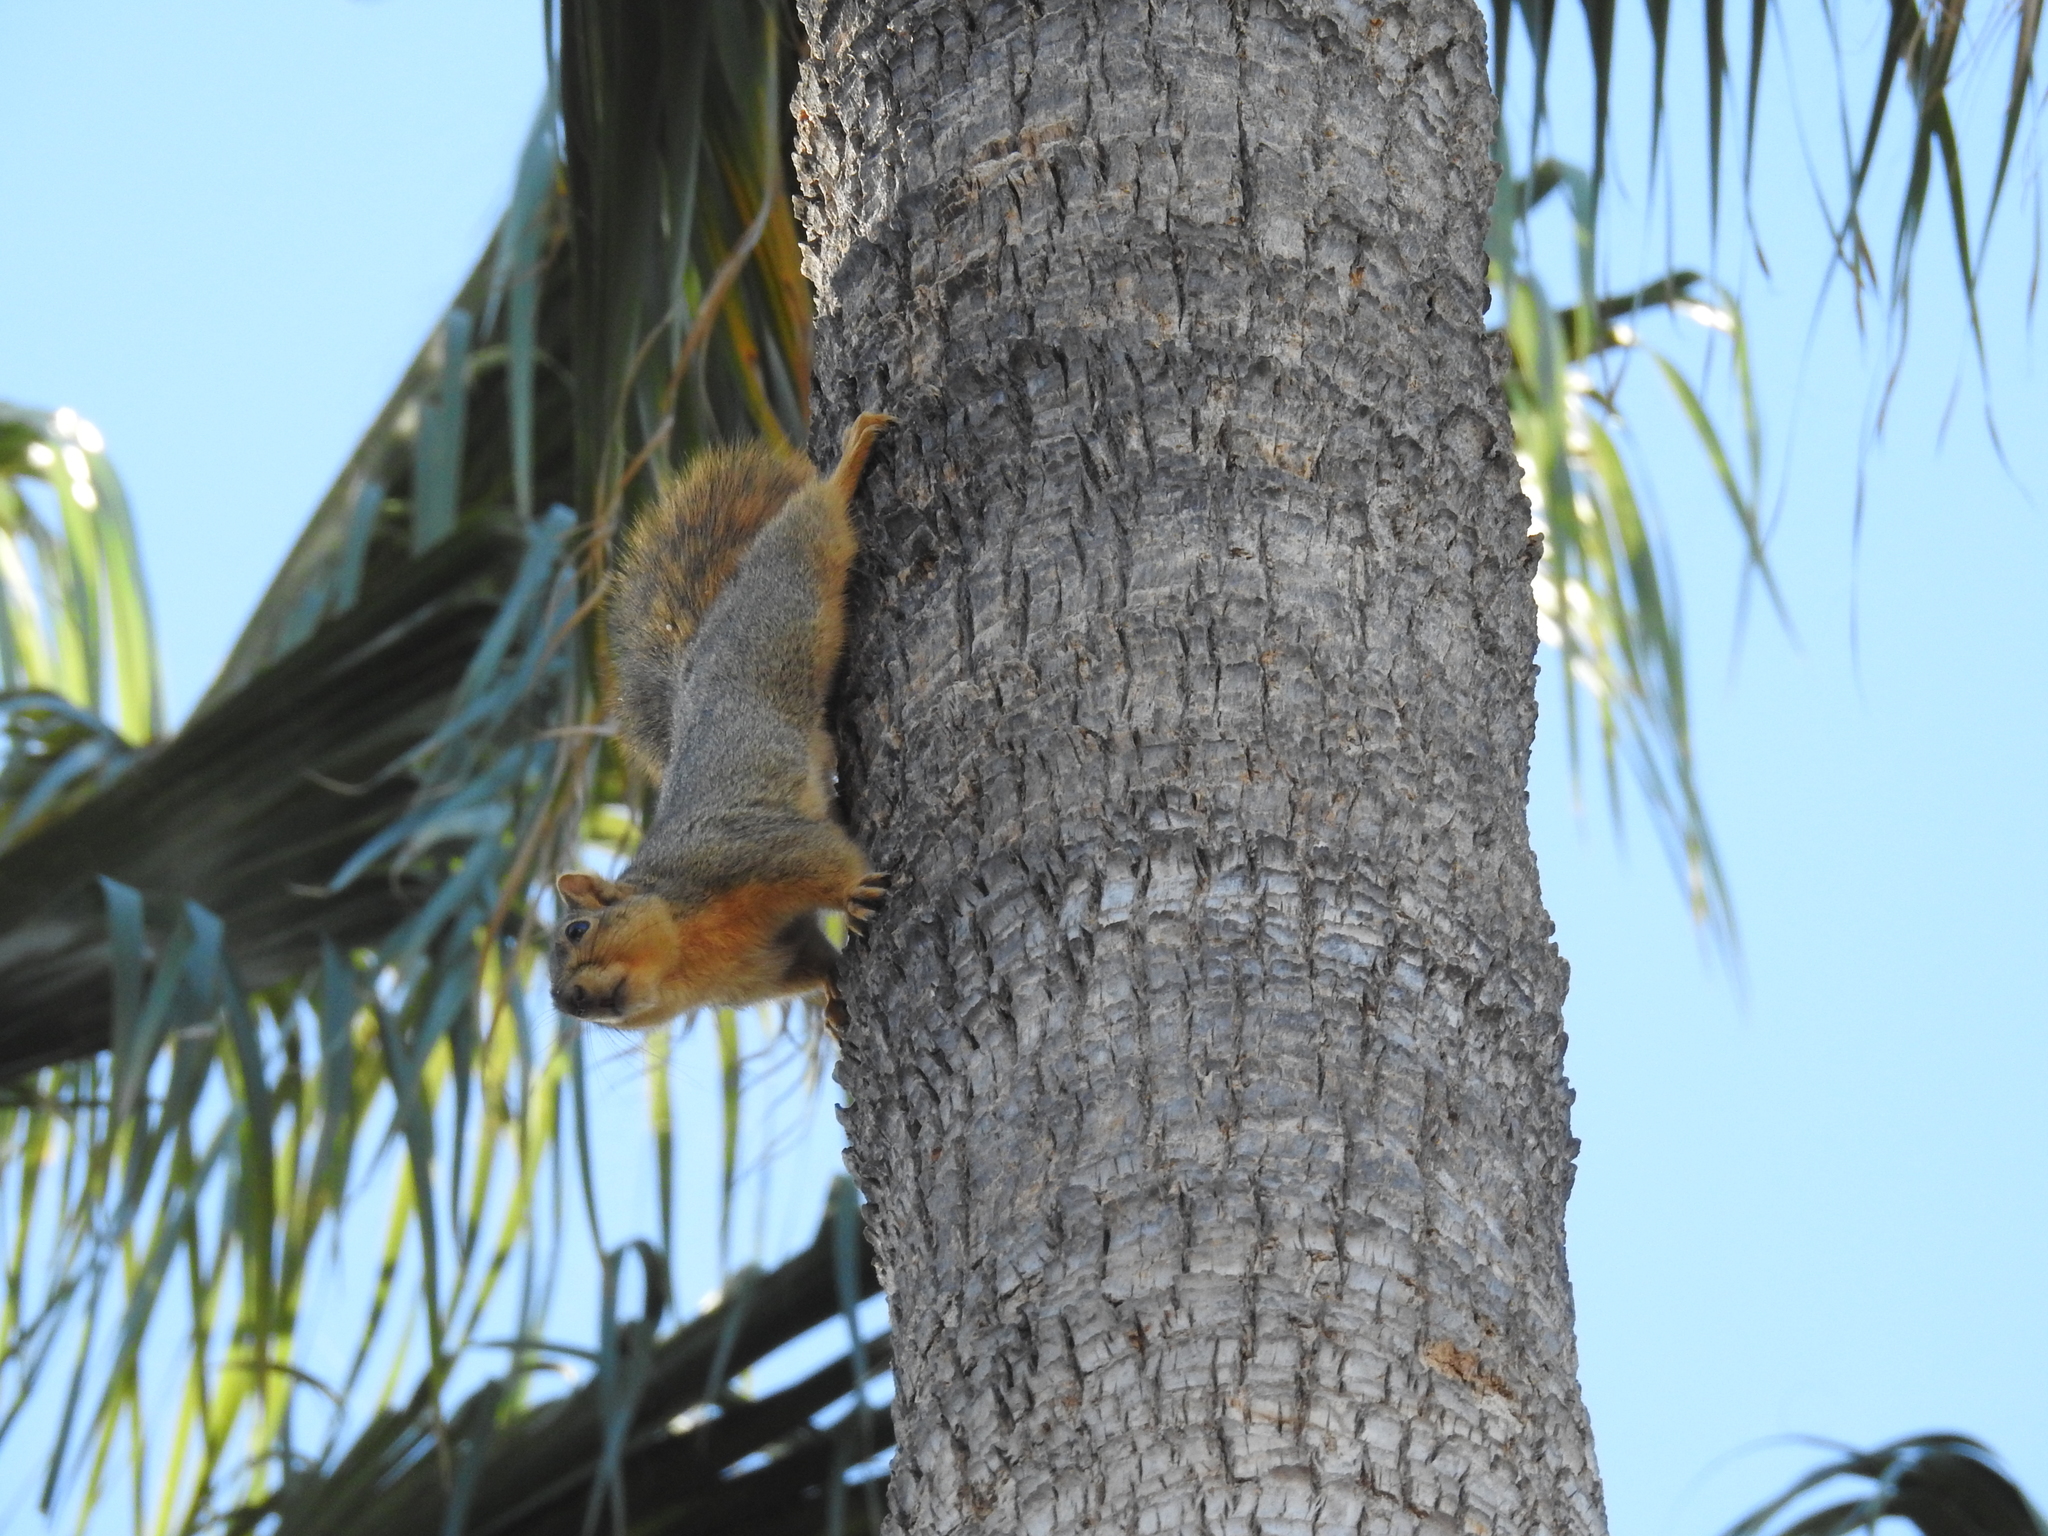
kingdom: Animalia
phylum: Chordata
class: Mammalia
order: Rodentia
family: Sciuridae
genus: Sciurus
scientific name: Sciurus niger
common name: Fox squirrel
